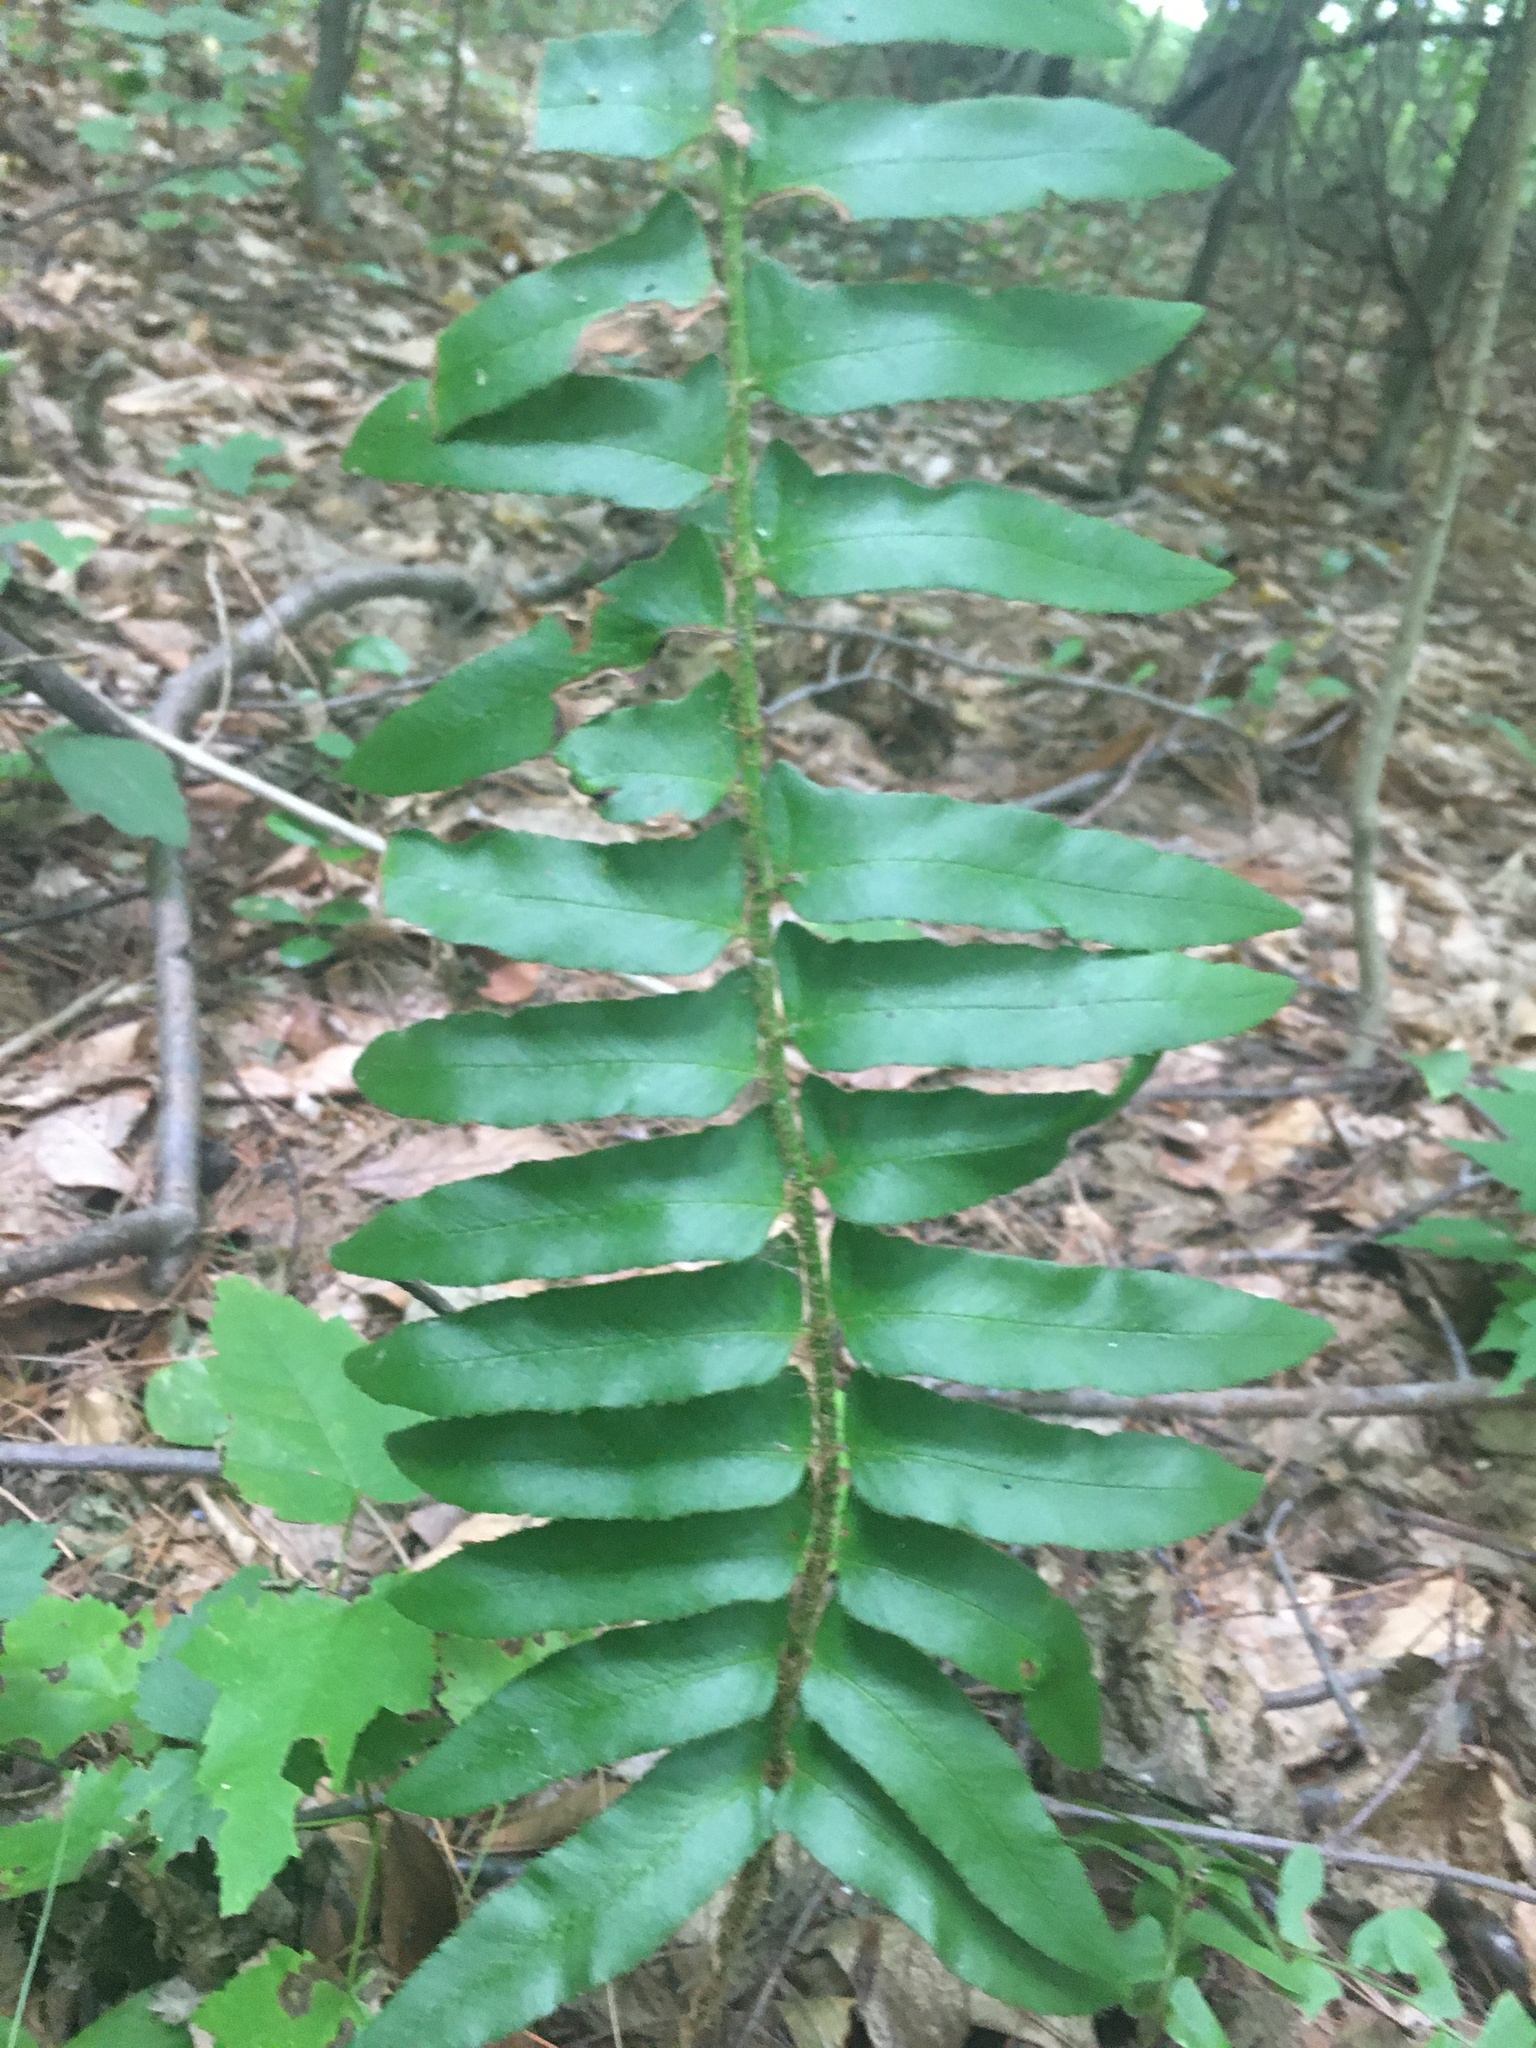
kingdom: Plantae
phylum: Tracheophyta
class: Polypodiopsida
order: Polypodiales
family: Dryopteridaceae
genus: Polystichum
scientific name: Polystichum acrostichoides
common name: Christmas fern
